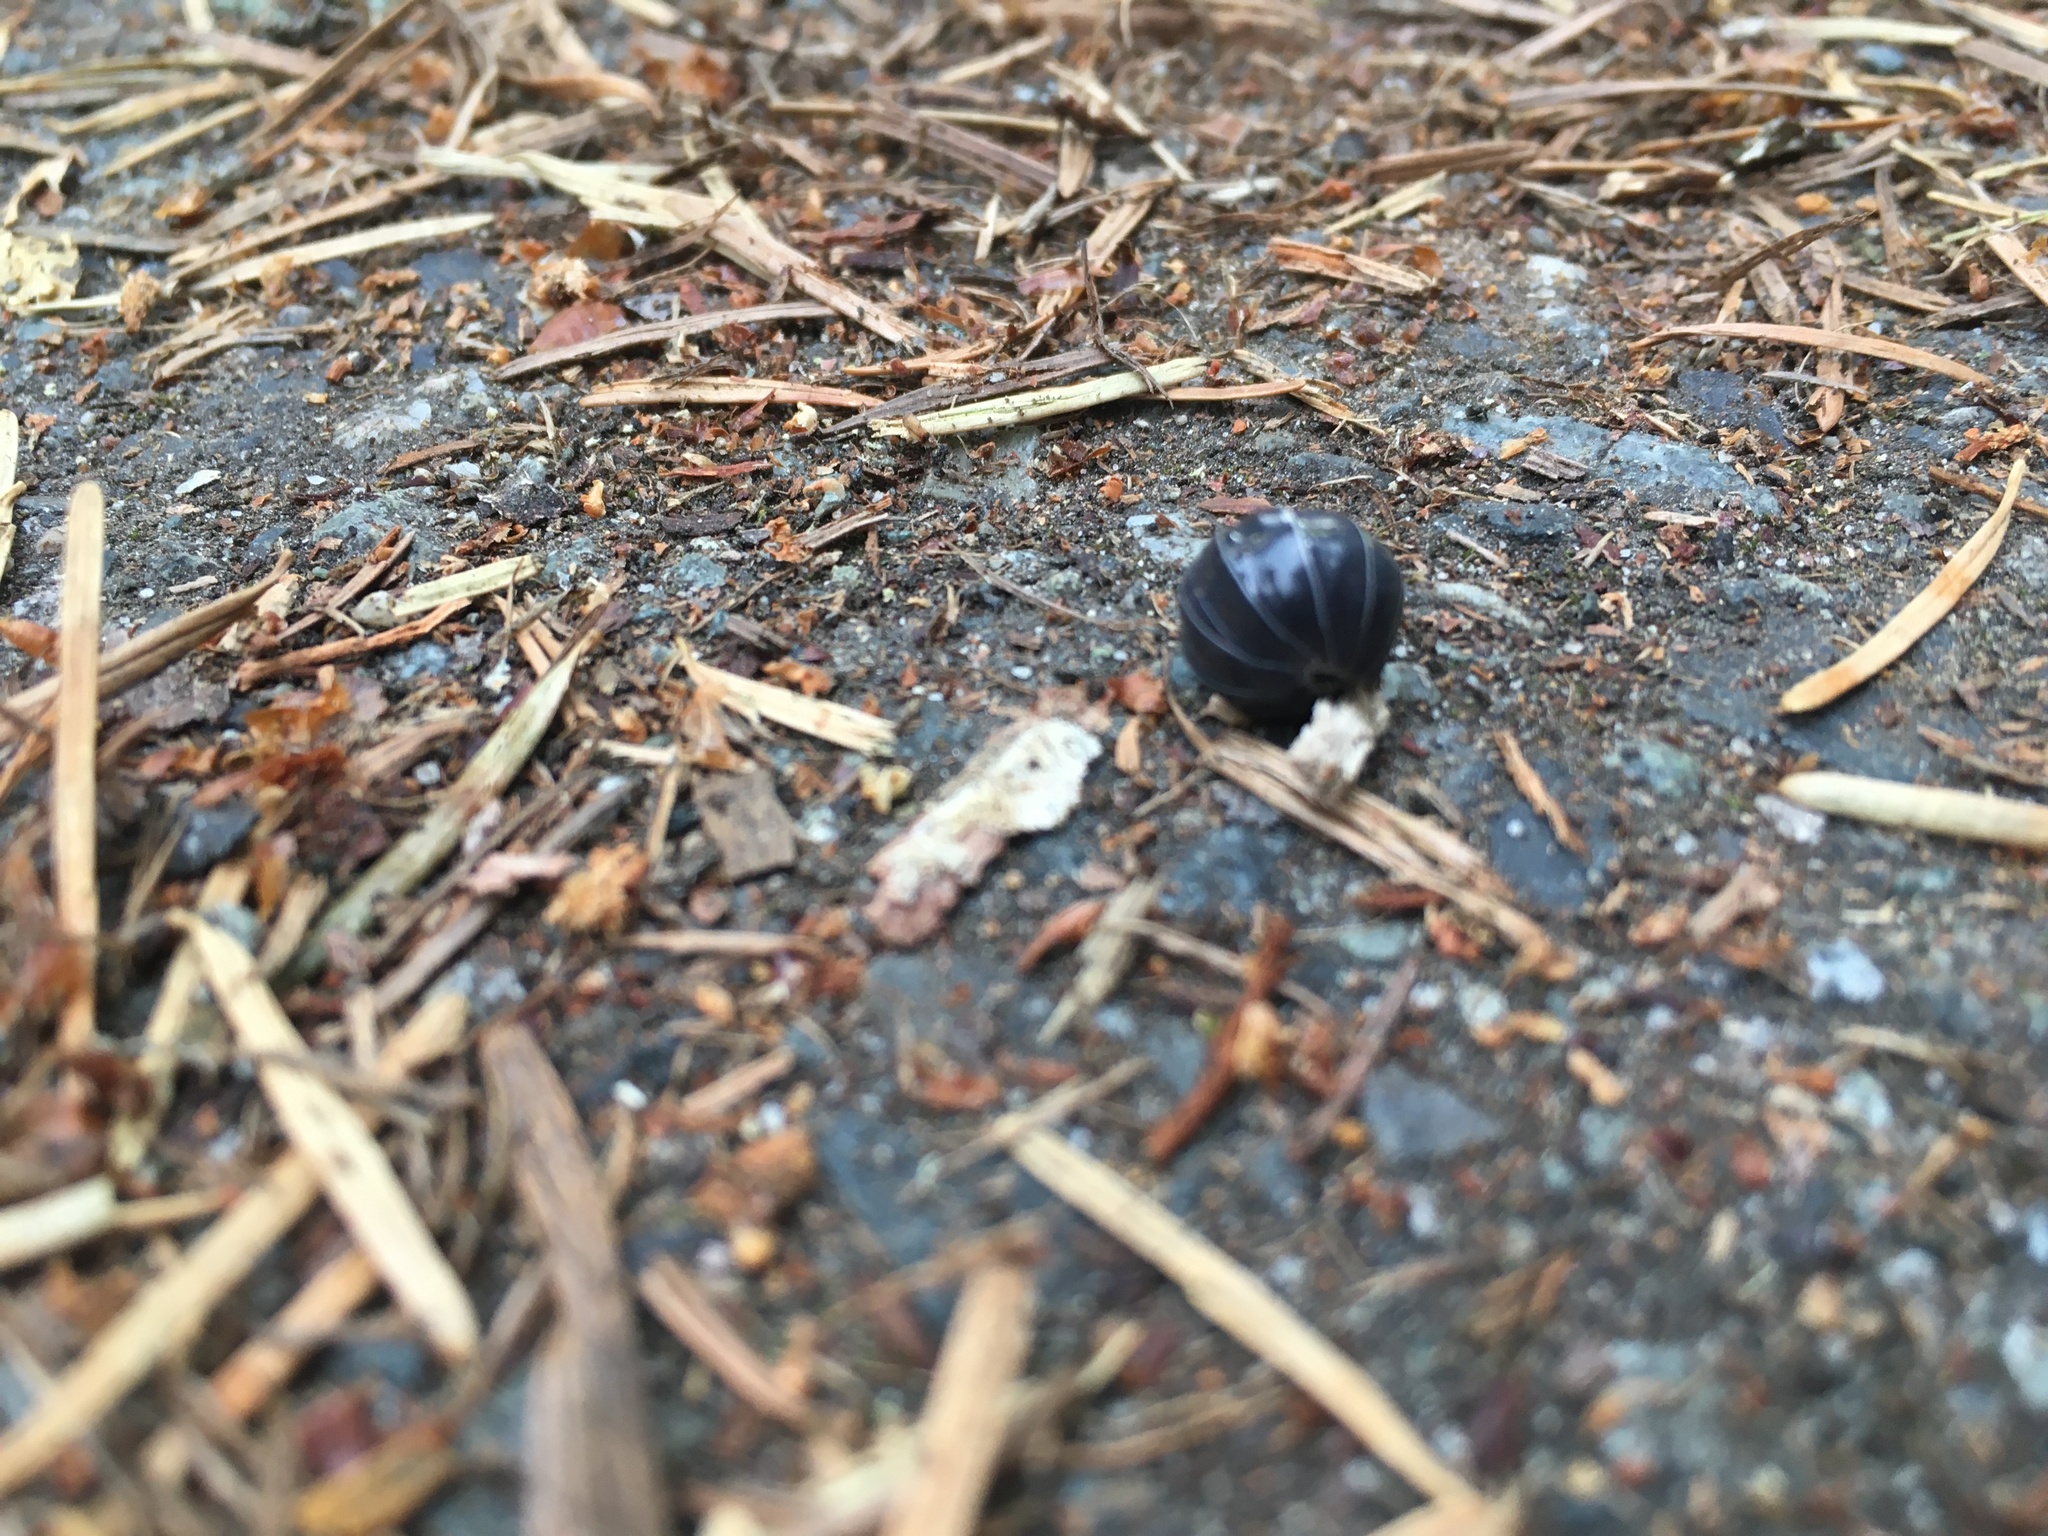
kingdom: Animalia
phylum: Arthropoda
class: Malacostraca
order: Isopoda
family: Armadillidiidae
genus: Armadillidium
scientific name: Armadillidium vulgare
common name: Common pill woodlouse
